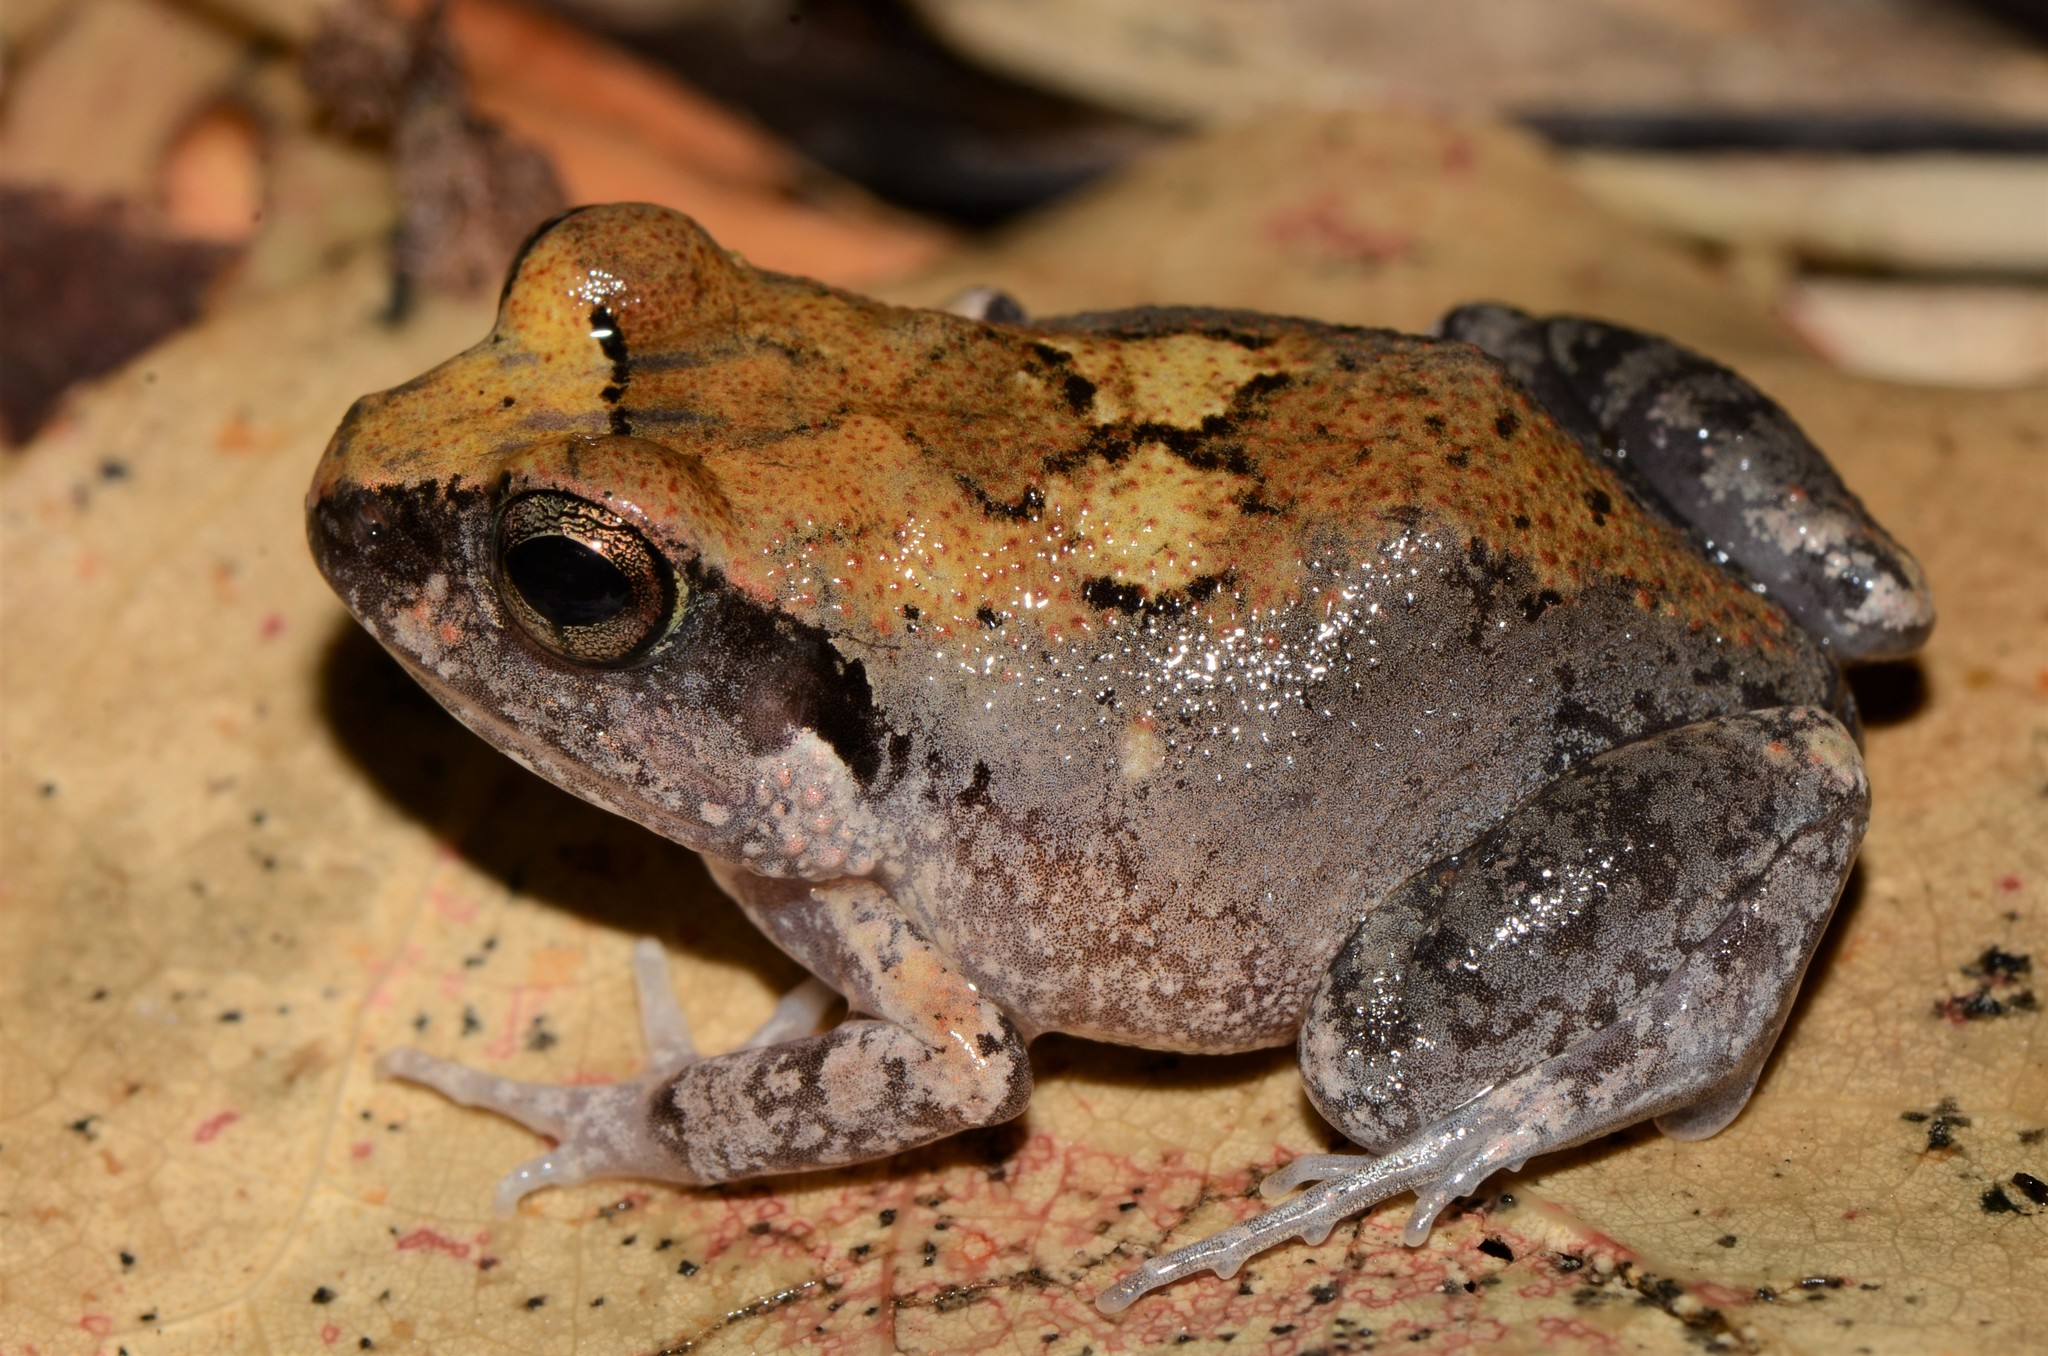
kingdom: Animalia
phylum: Chordata
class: Amphibia
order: Anura
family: Arthroleptidae
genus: Arthroleptis
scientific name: Arthroleptis stenodactylus
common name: Dune squeaker
